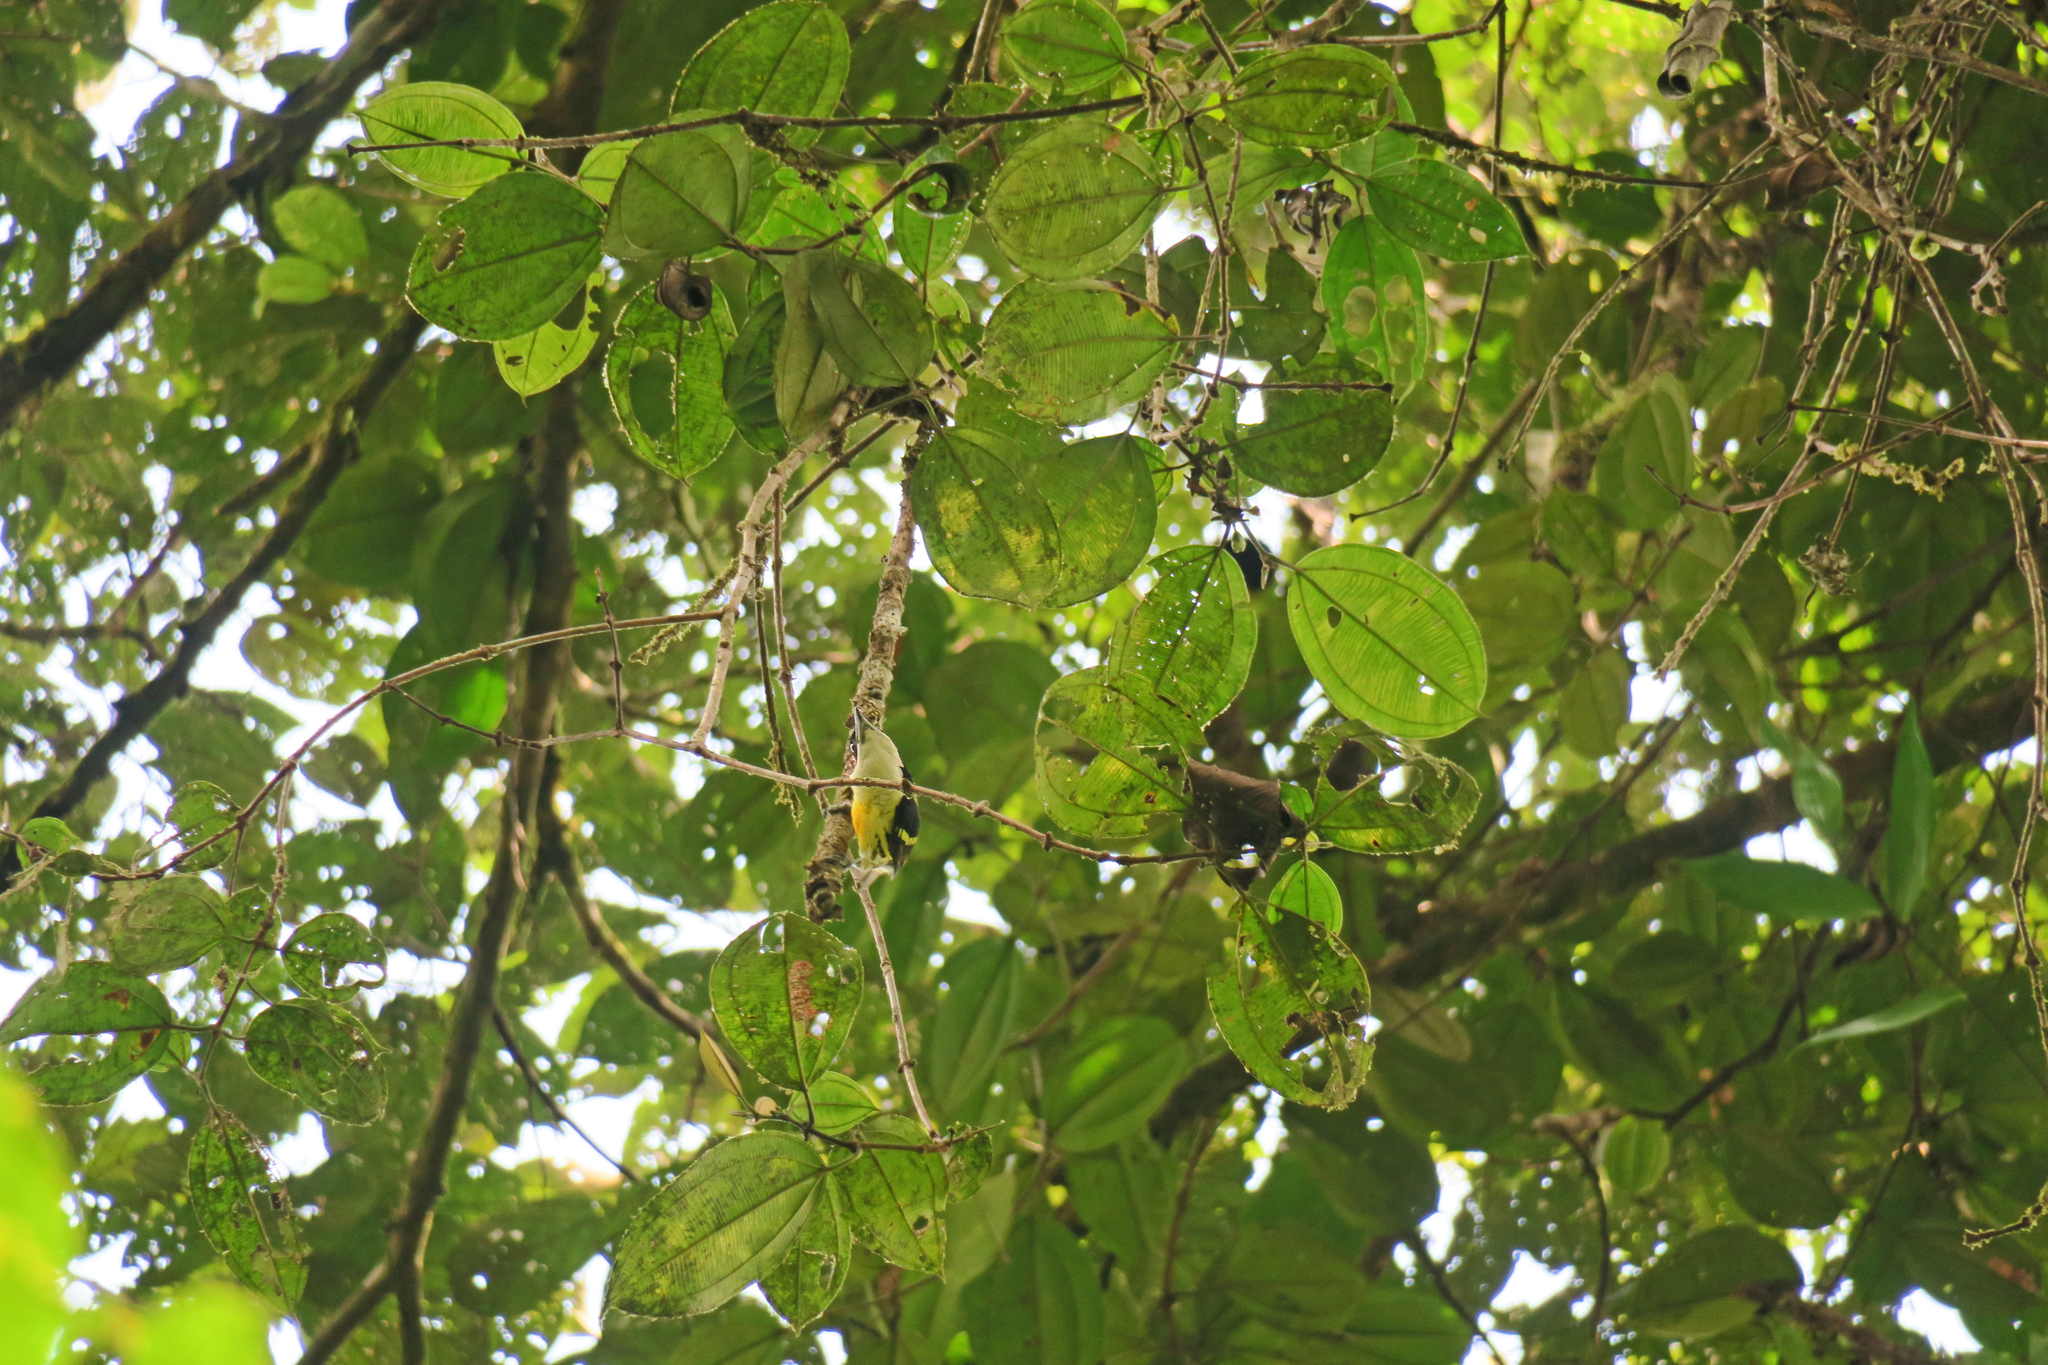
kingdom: Animalia
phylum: Chordata
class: Aves
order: Piciformes
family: Capitonidae
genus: Capito
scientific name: Capito quinticolor
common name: Five-colored barbet
